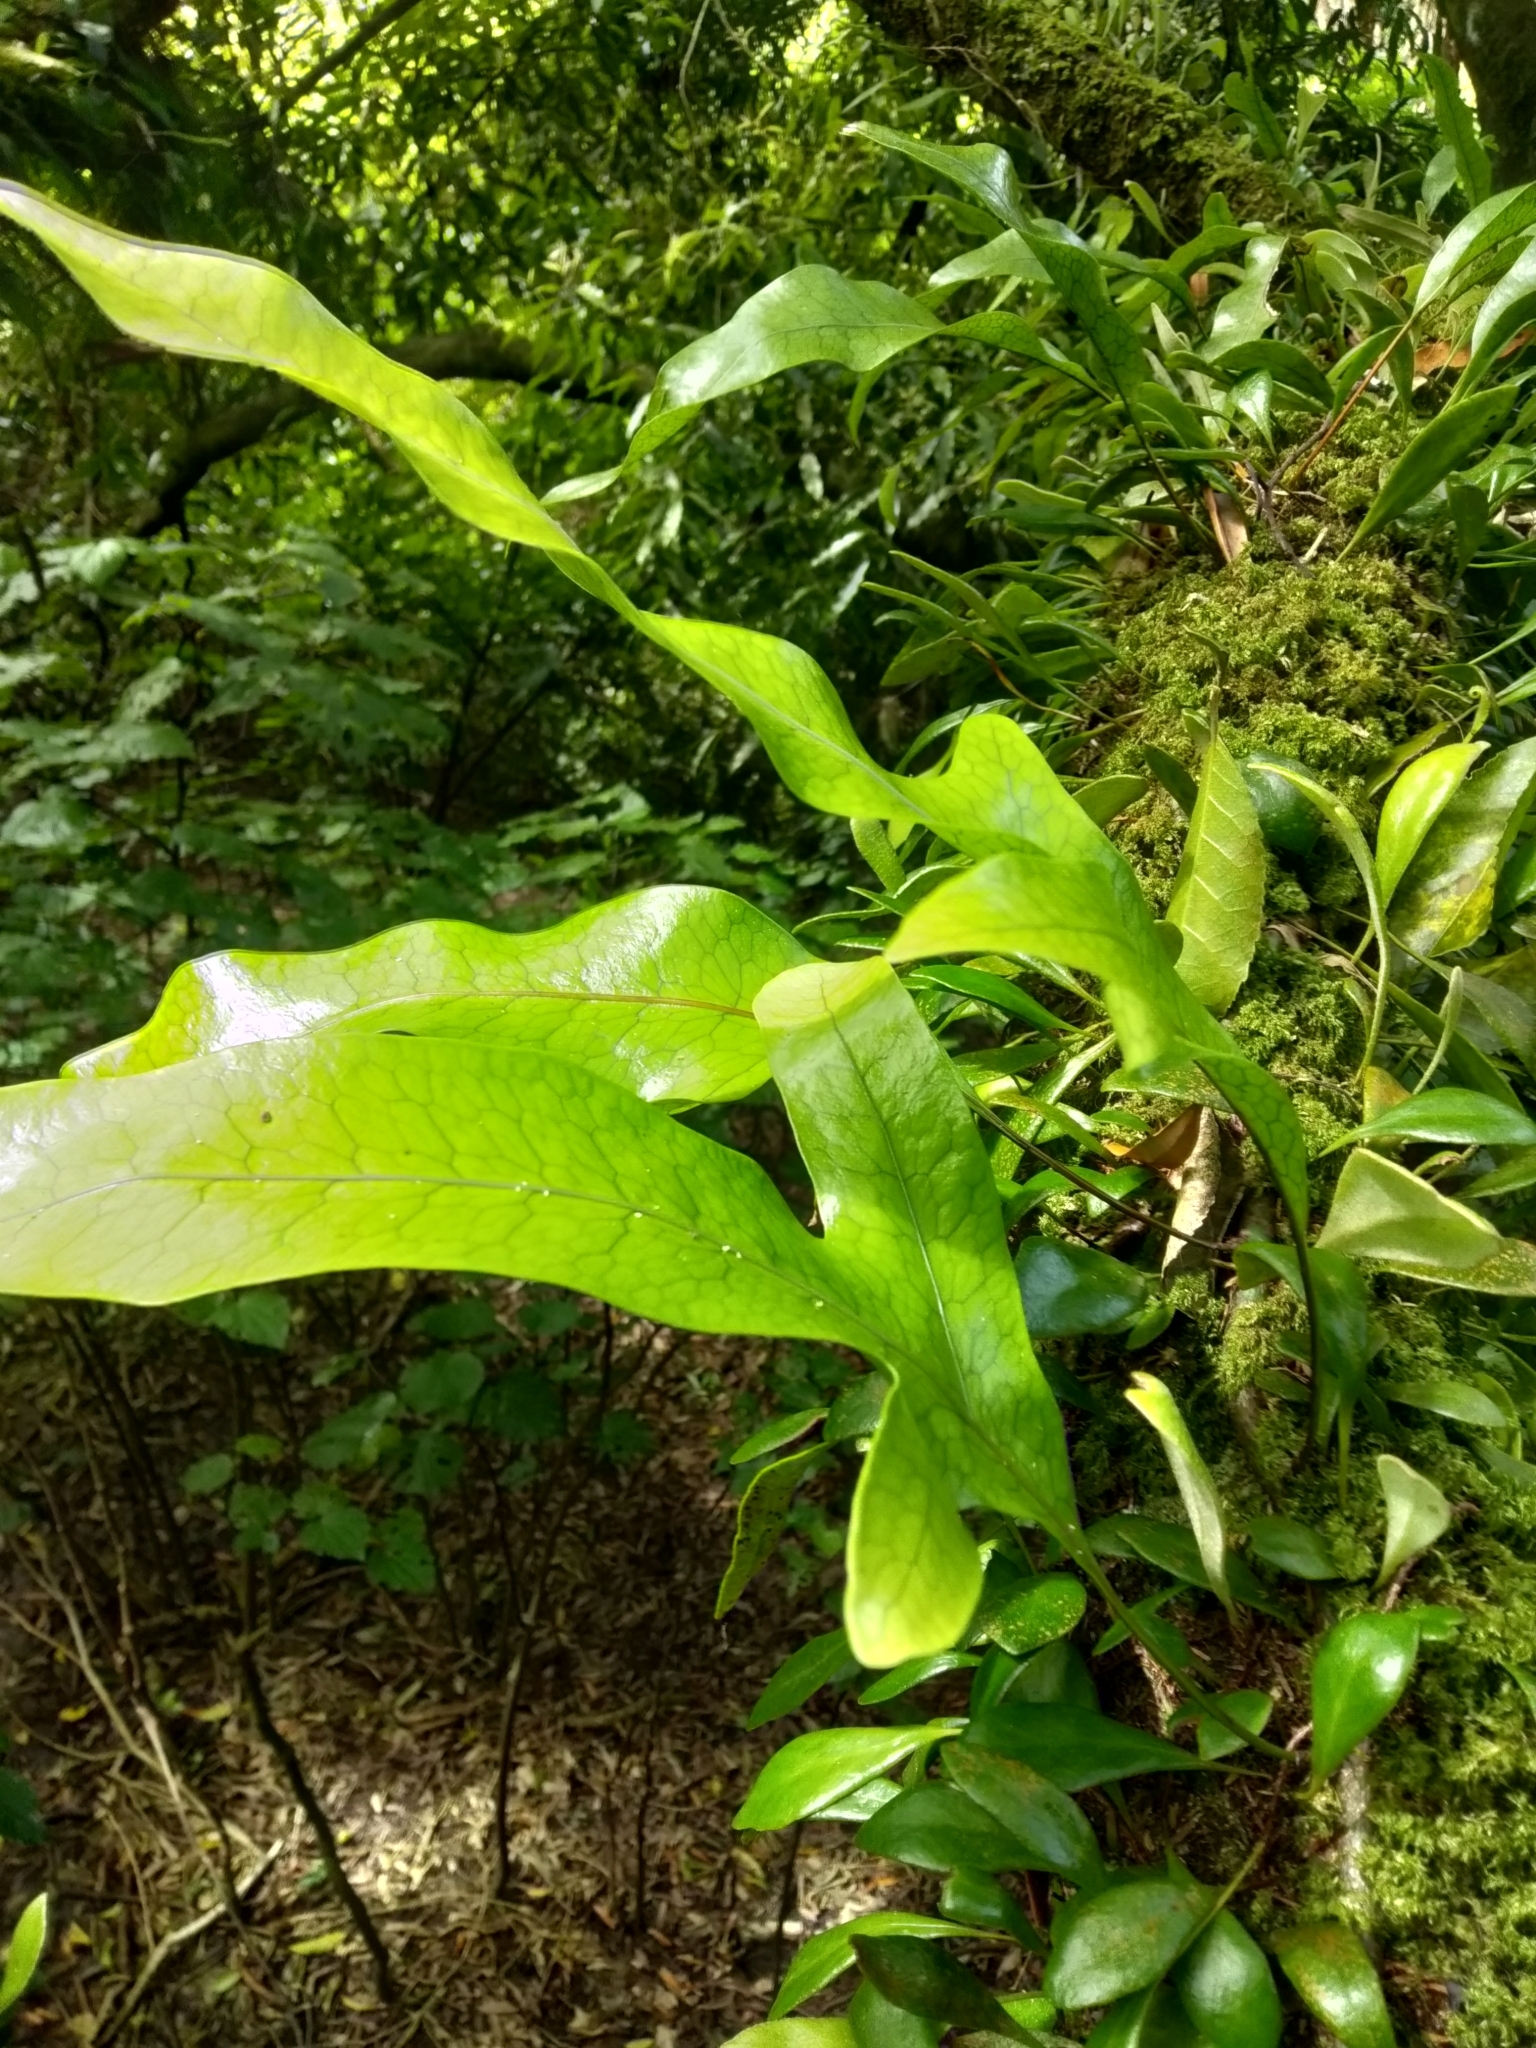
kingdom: Plantae
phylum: Tracheophyta
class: Polypodiopsida
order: Polypodiales
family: Polypodiaceae
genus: Lecanopteris
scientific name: Lecanopteris pustulata
